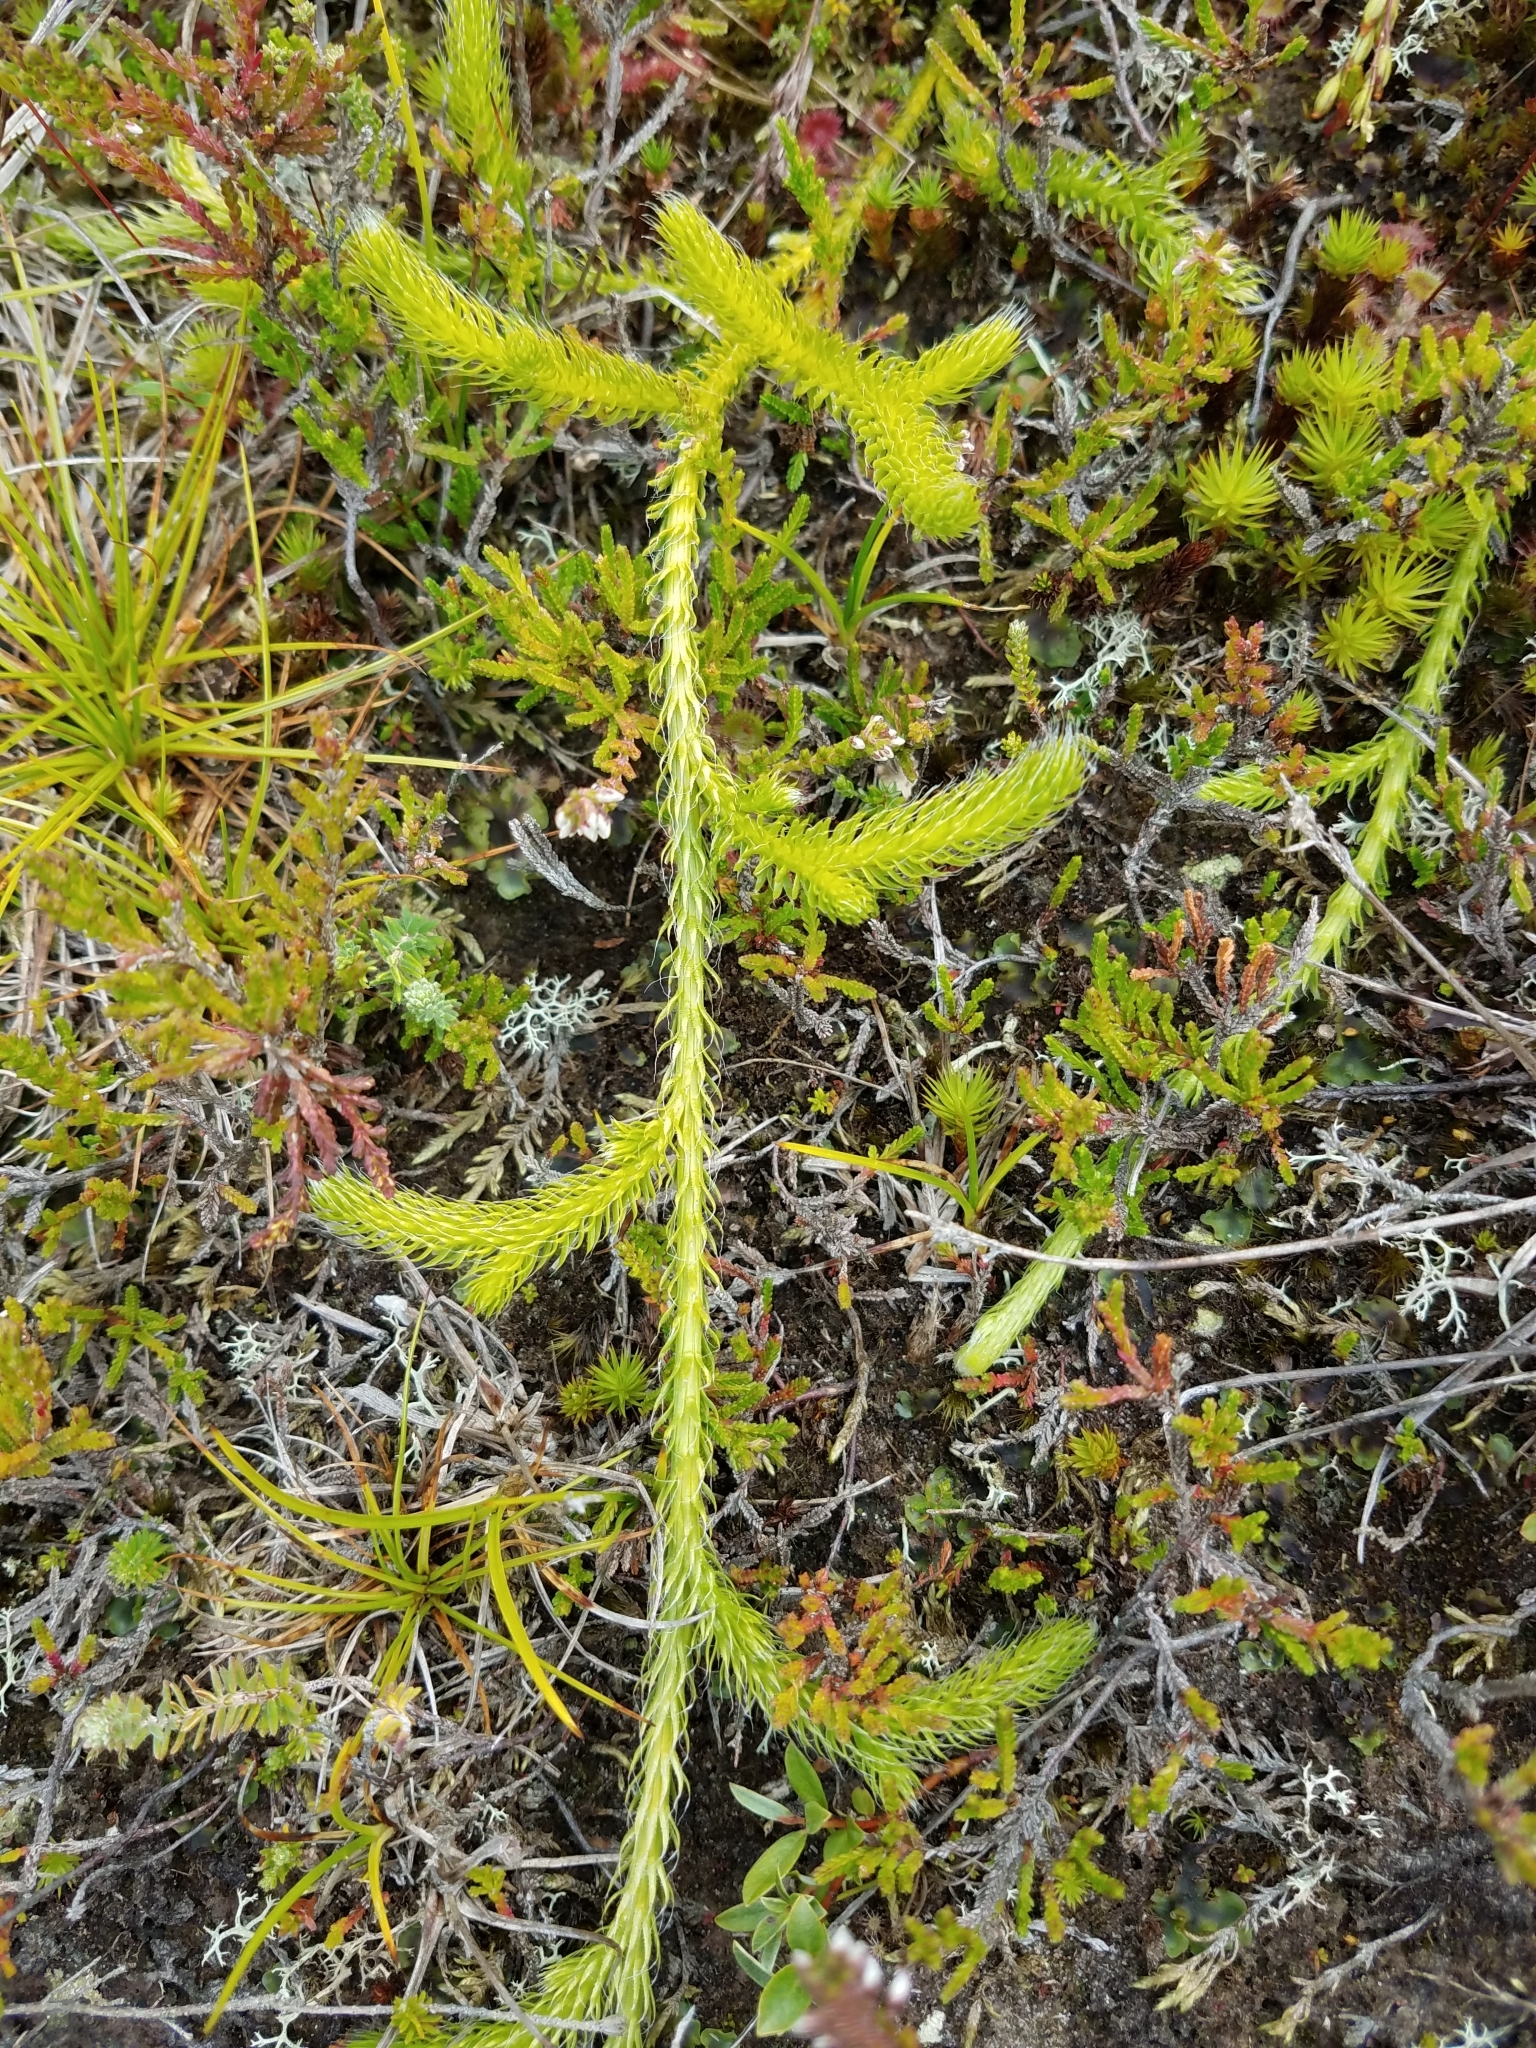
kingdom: Plantae
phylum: Tracheophyta
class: Lycopodiopsida
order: Lycopodiales
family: Lycopodiaceae
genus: Lycopodium
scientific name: Lycopodium clavatum
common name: Stag's-horn clubmoss
